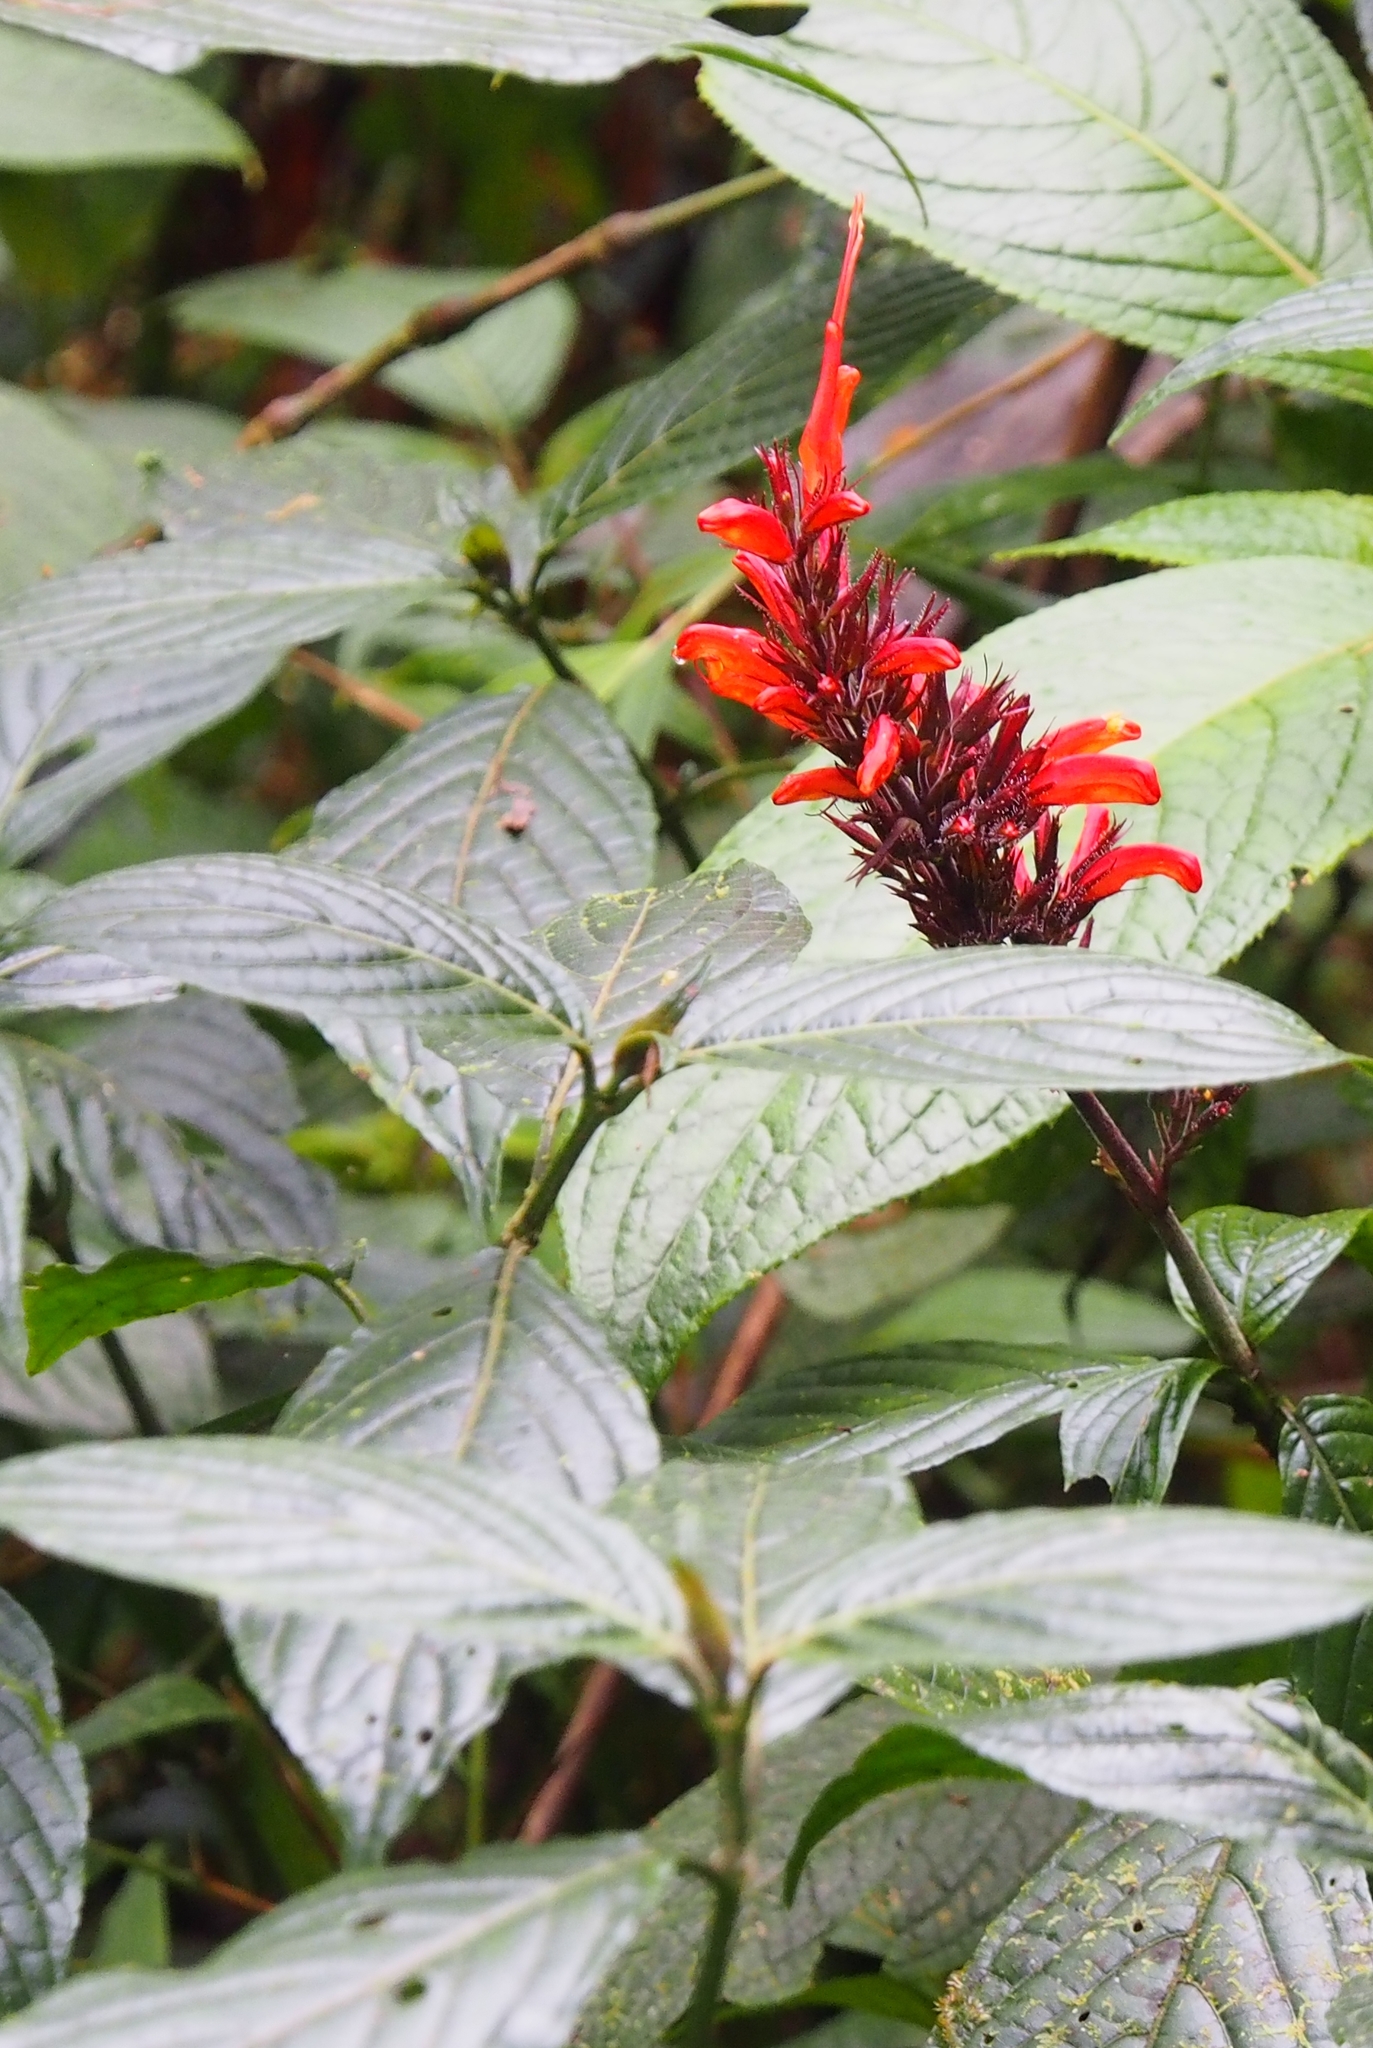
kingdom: Plantae
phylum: Tracheophyta
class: Magnoliopsida
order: Lamiales
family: Acanthaceae
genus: Stenostephanus
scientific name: Stenostephanus leiorhachis
